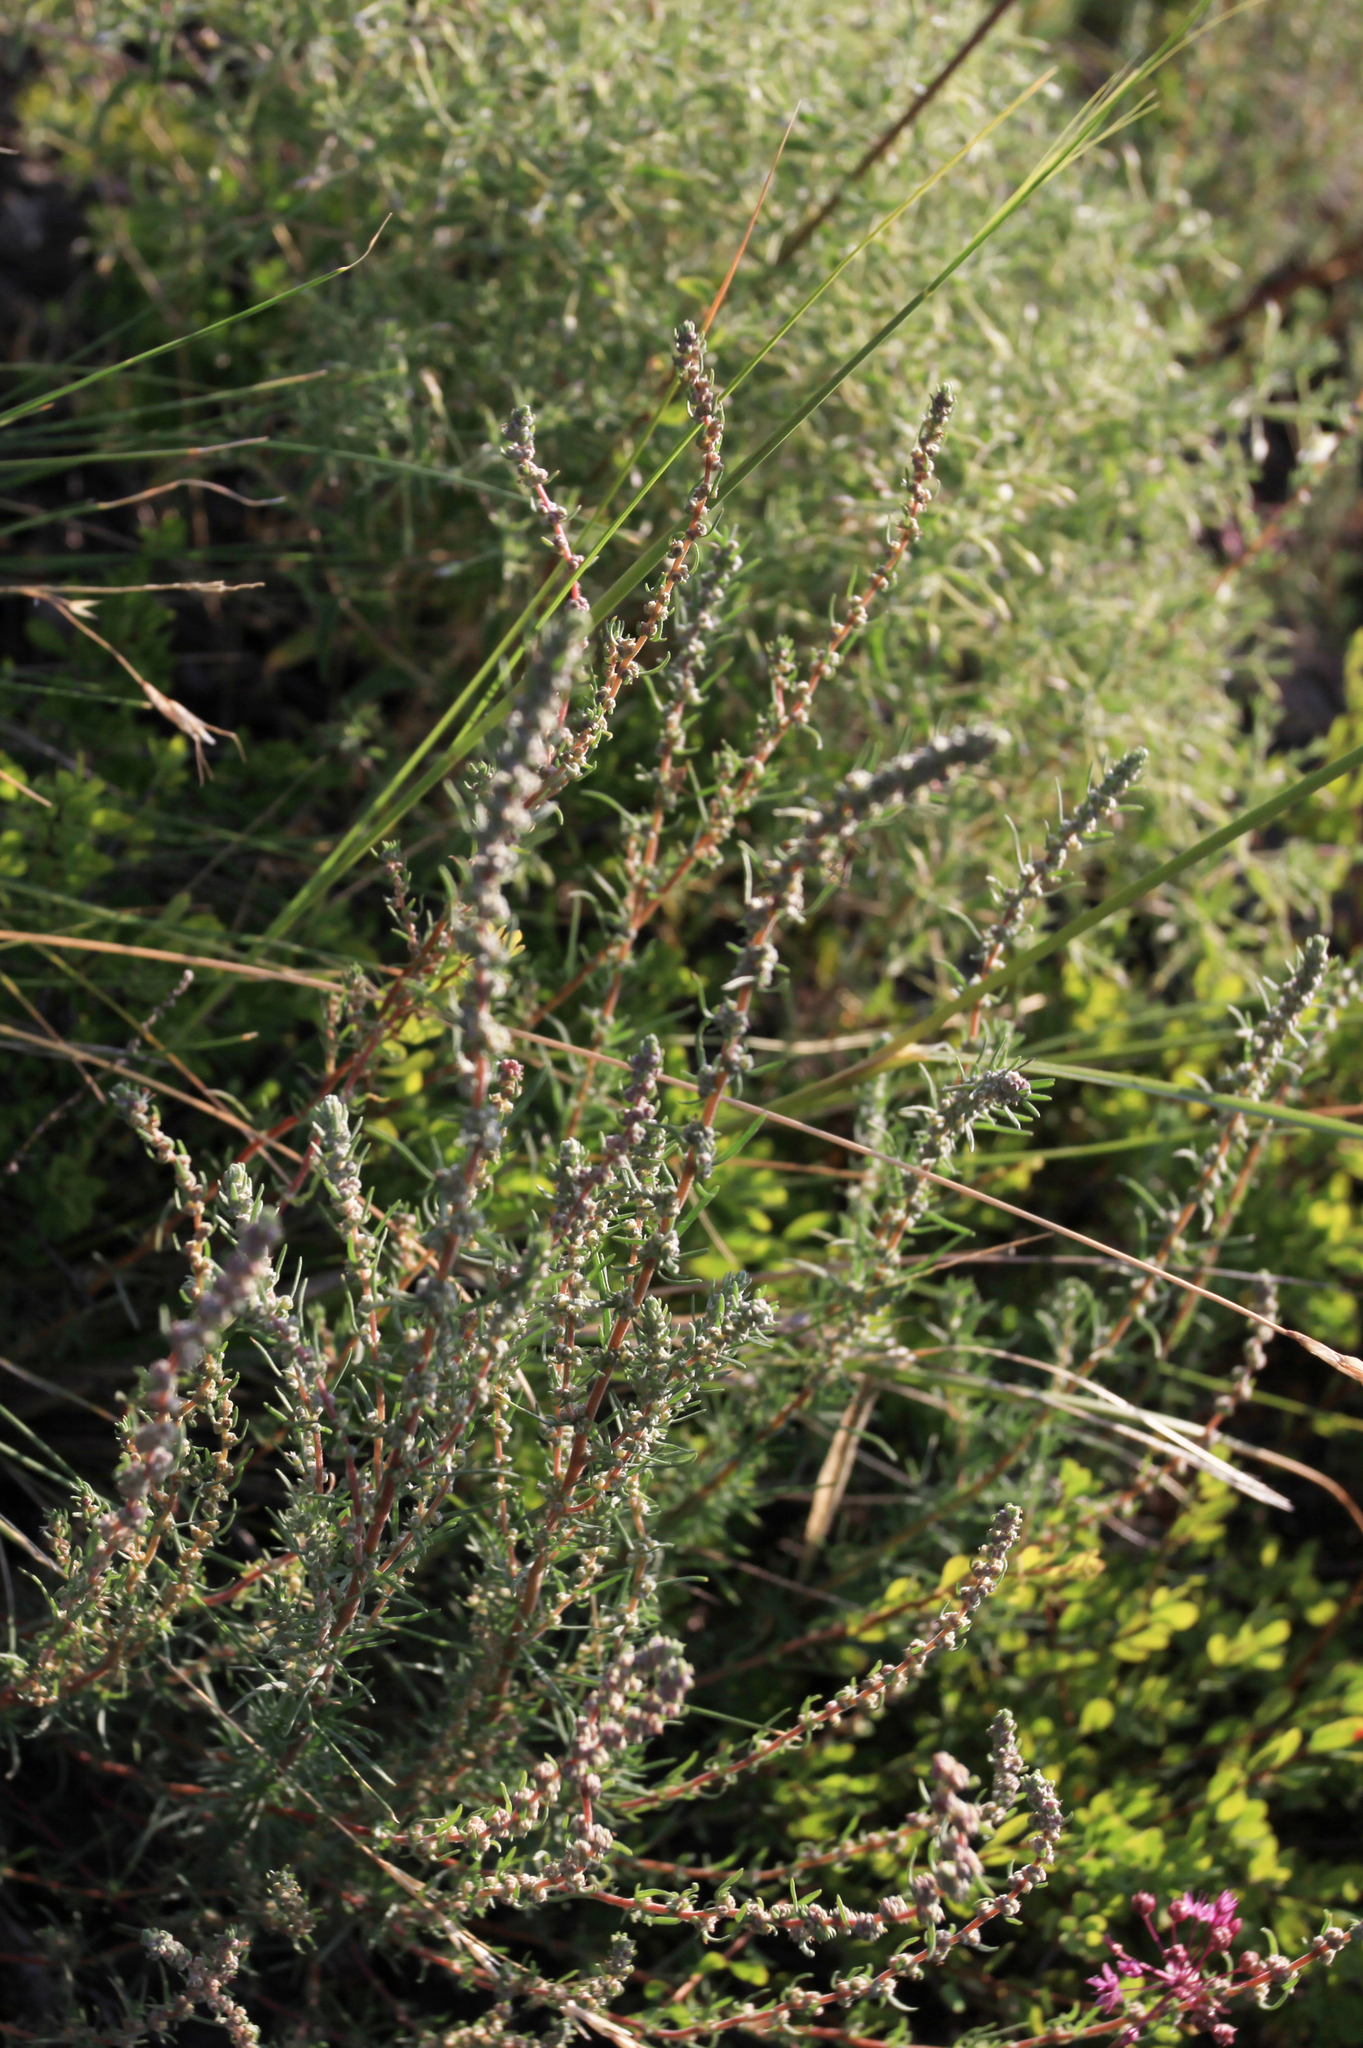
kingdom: Plantae
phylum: Tracheophyta
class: Magnoliopsida
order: Caryophyllales
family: Amaranthaceae
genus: Bassia
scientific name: Bassia prostrata
